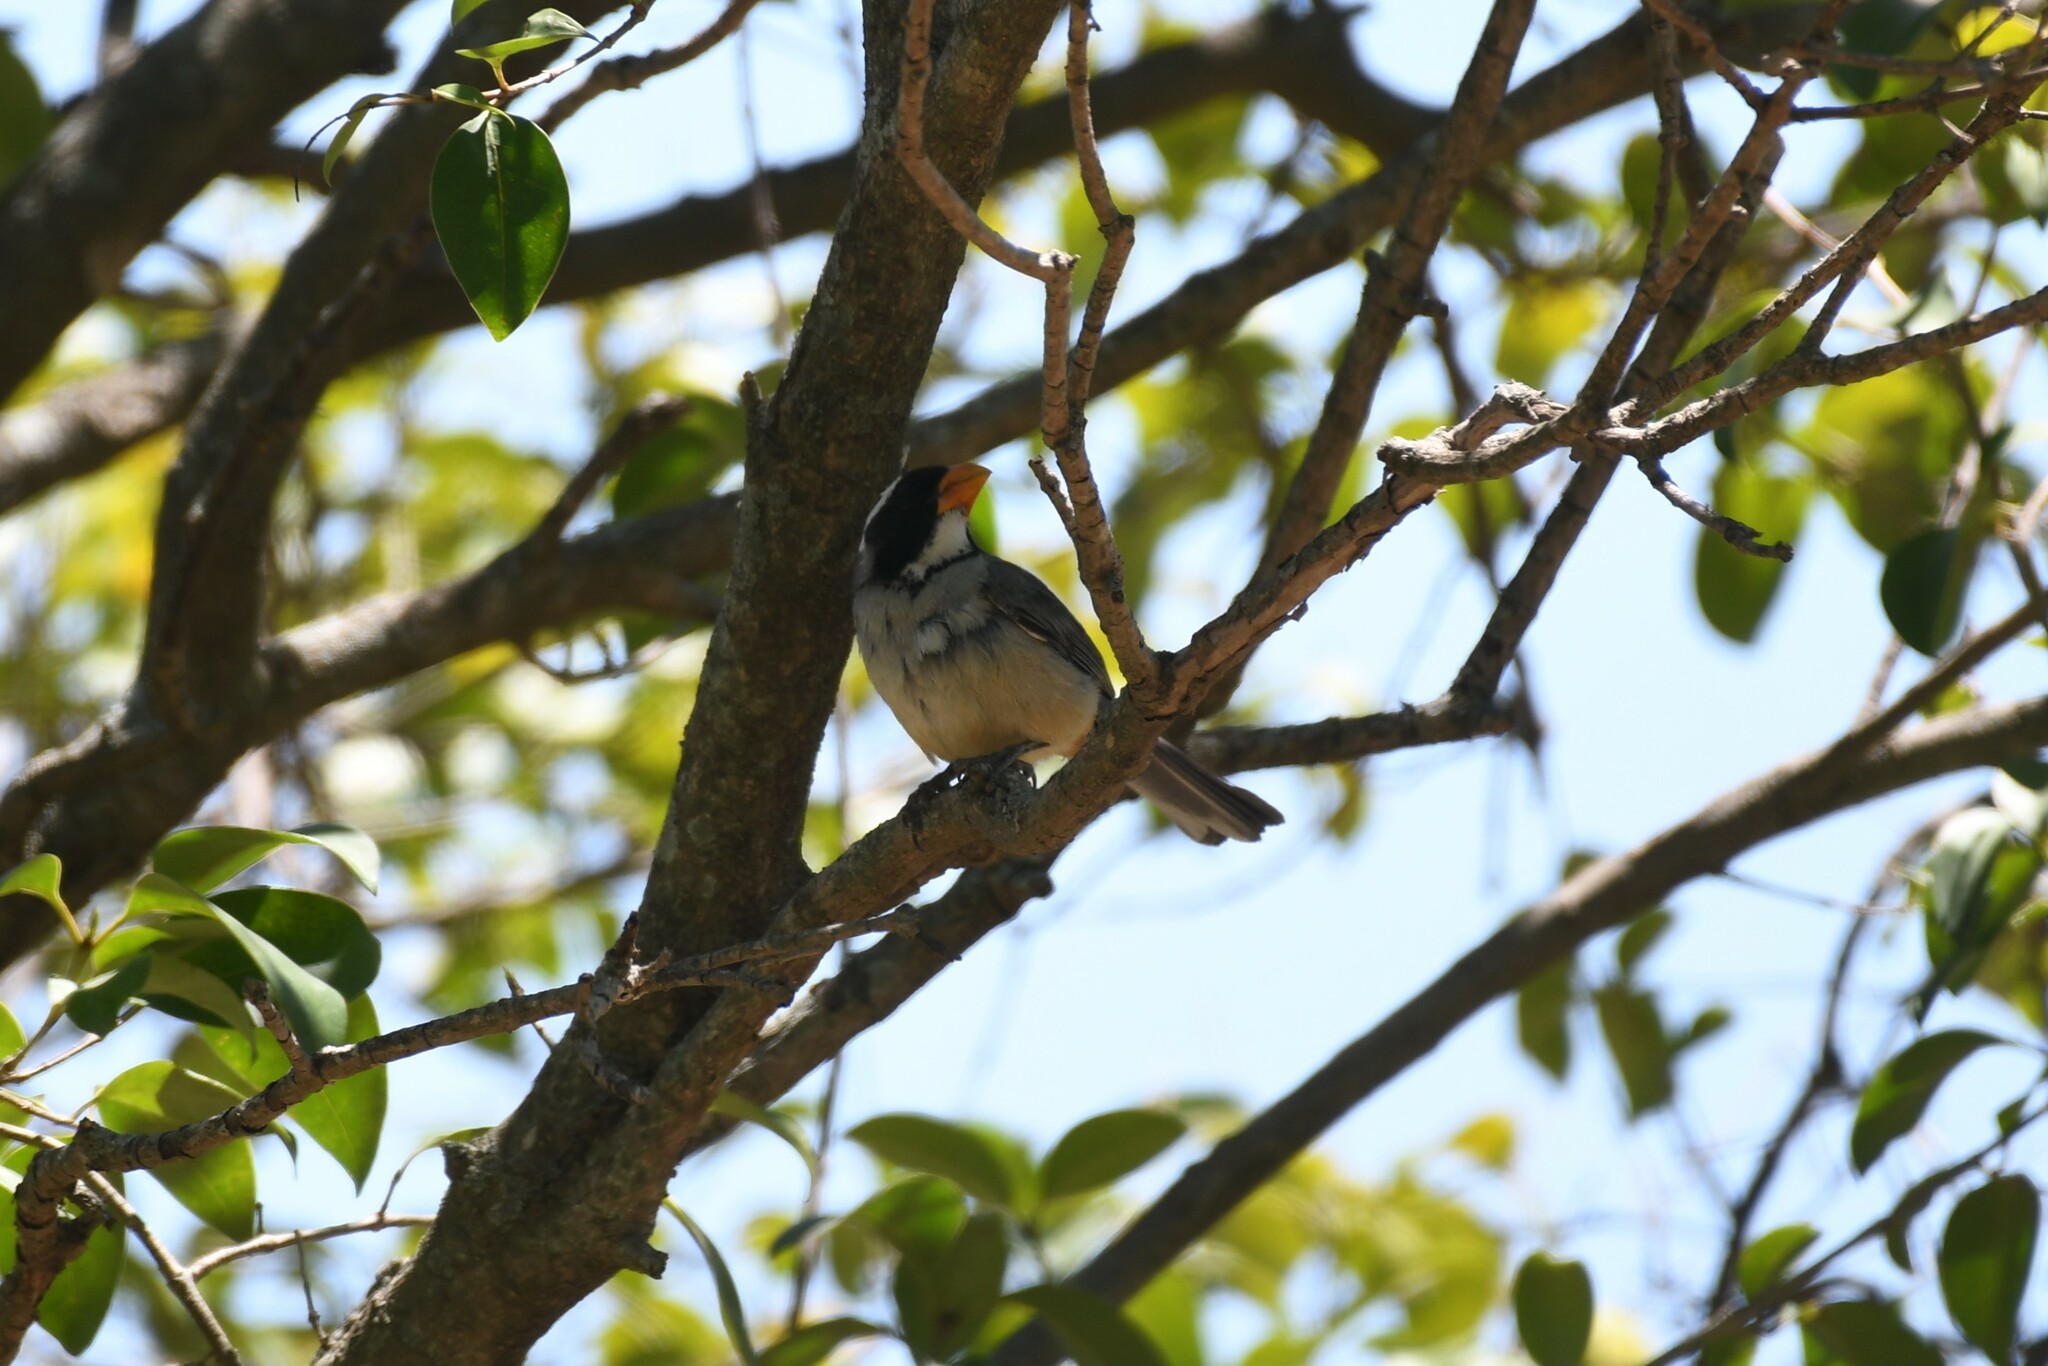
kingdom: Animalia
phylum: Chordata
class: Aves
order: Passeriformes
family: Thraupidae
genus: Saltator
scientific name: Saltator aurantiirostris
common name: Golden-billed saltator
